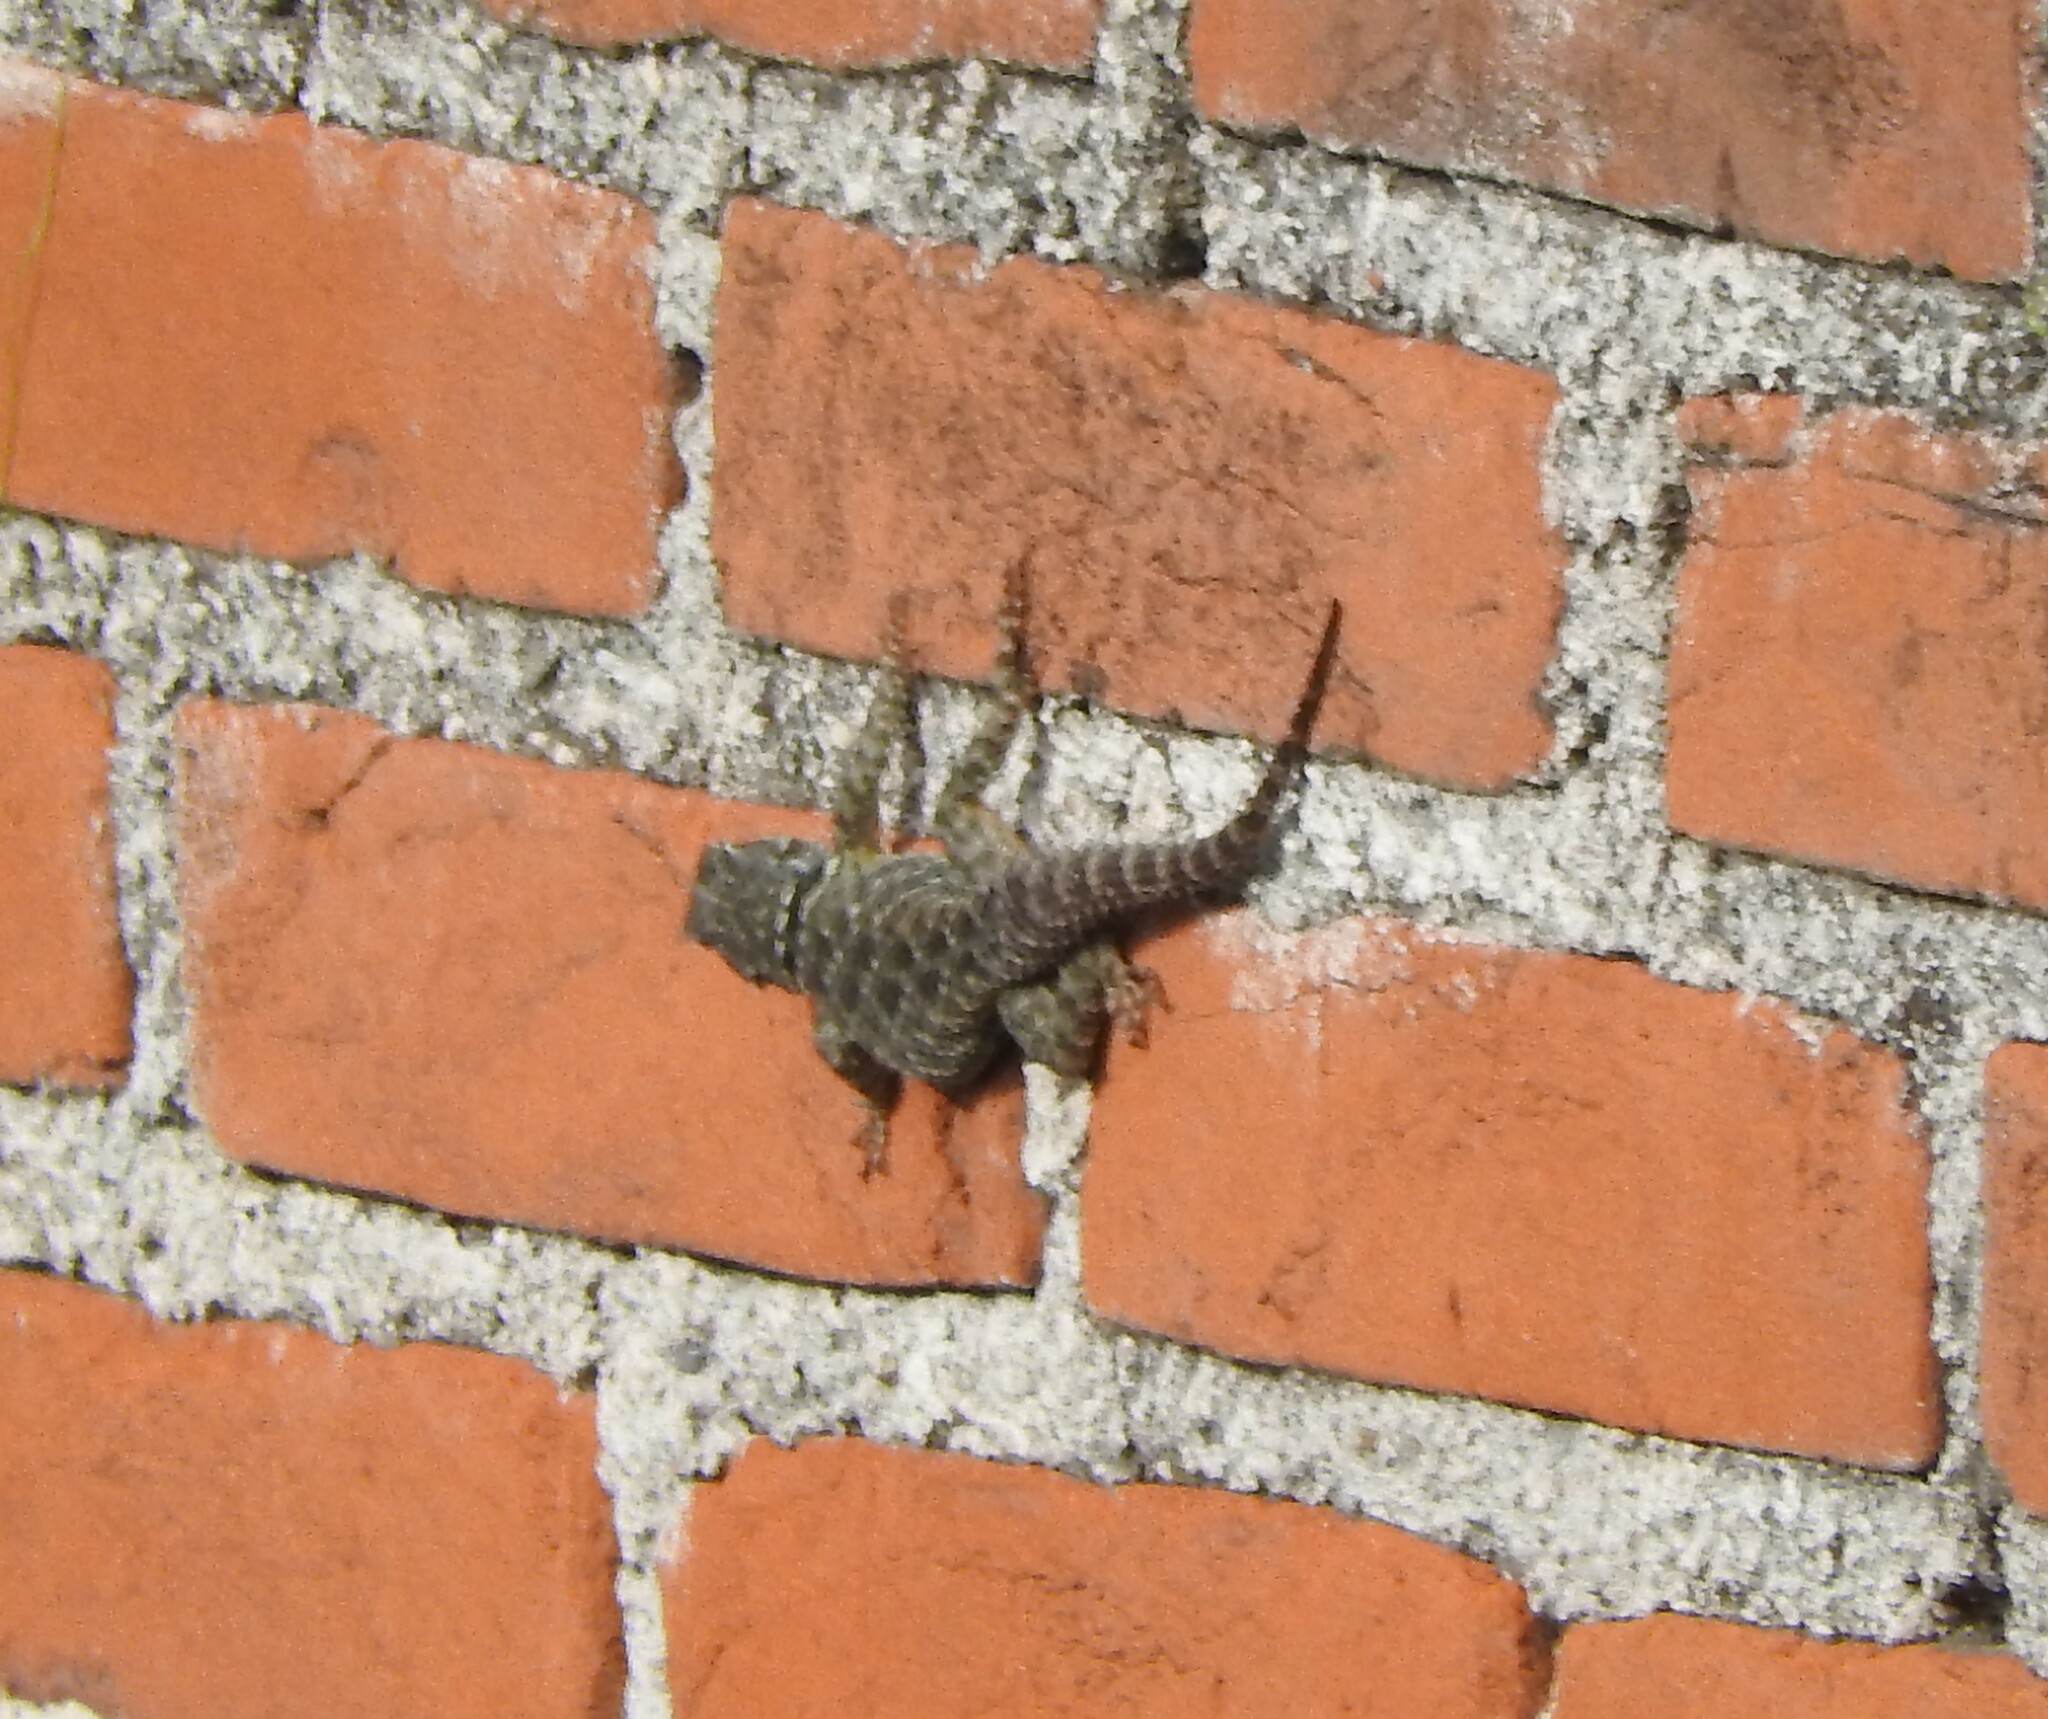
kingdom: Animalia
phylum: Chordata
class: Squamata
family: Phrynosomatidae
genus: Sceloporus
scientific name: Sceloporus torquatus
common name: Central plateau torquate lizard [melanogaster]
